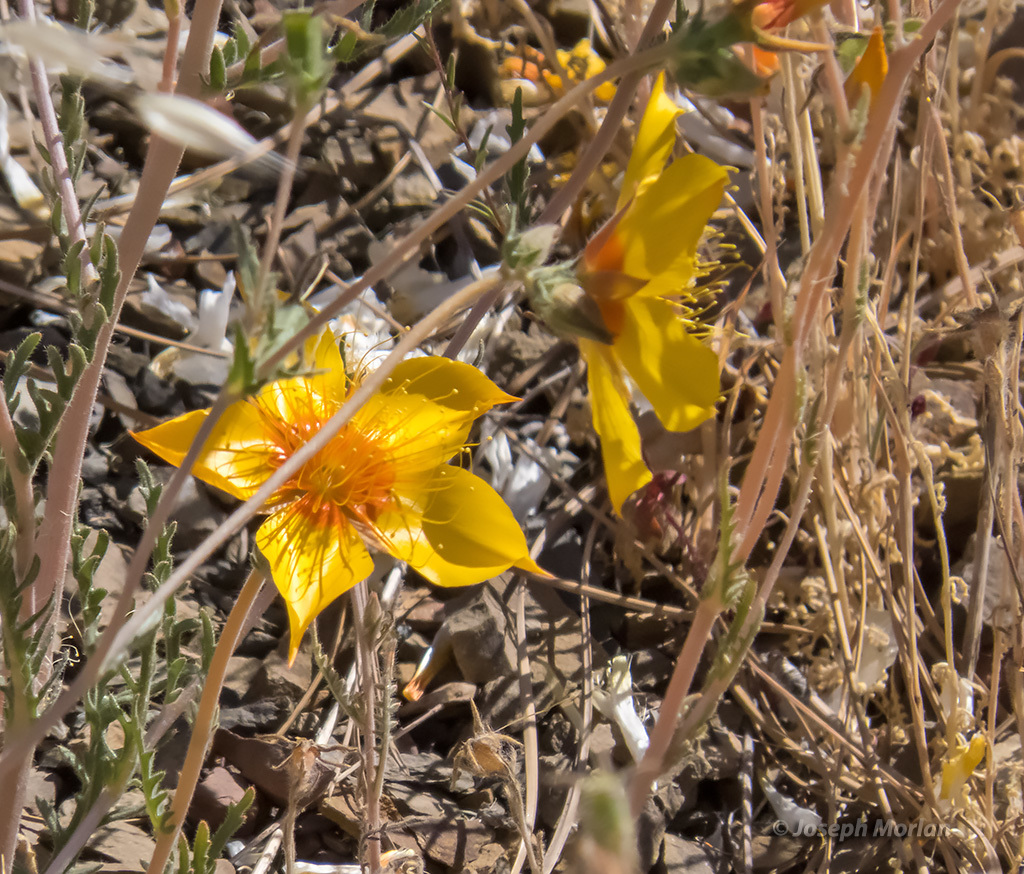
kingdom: Plantae
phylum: Tracheophyta
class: Magnoliopsida
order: Cornales
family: Loasaceae
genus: Mentzelia
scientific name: Mentzelia lindleyi
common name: Golden bartonia
